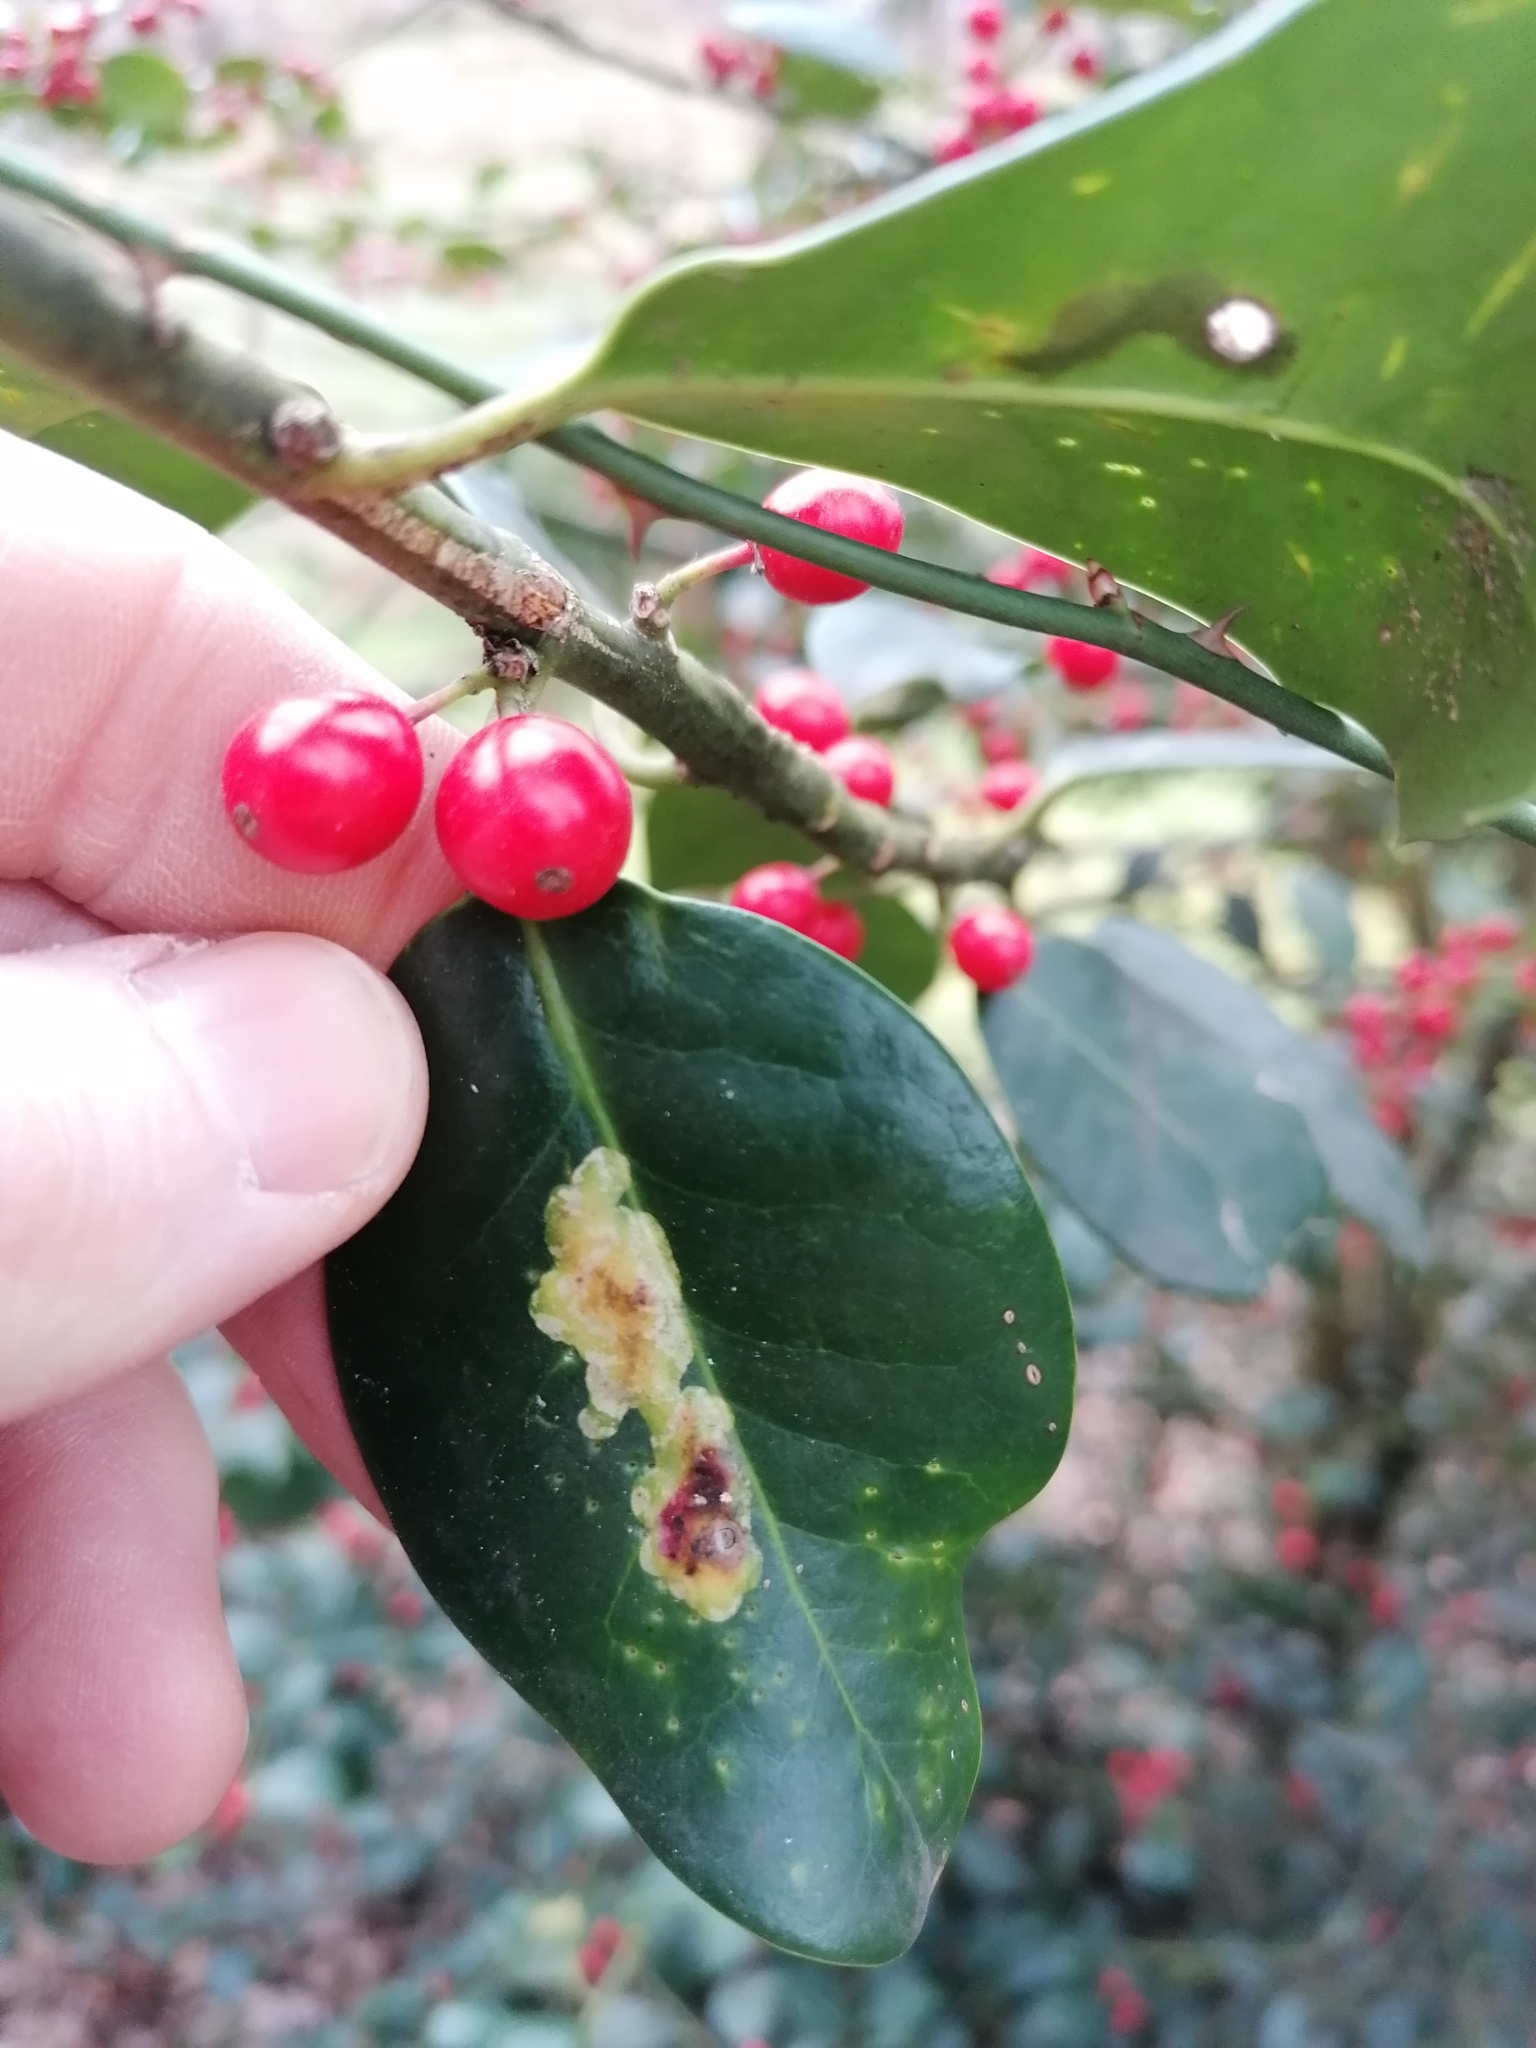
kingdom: Animalia
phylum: Arthropoda
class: Insecta
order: Diptera
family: Agromyzidae
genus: Phytomyza
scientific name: Phytomyza ilicis
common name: Holly leafminer
